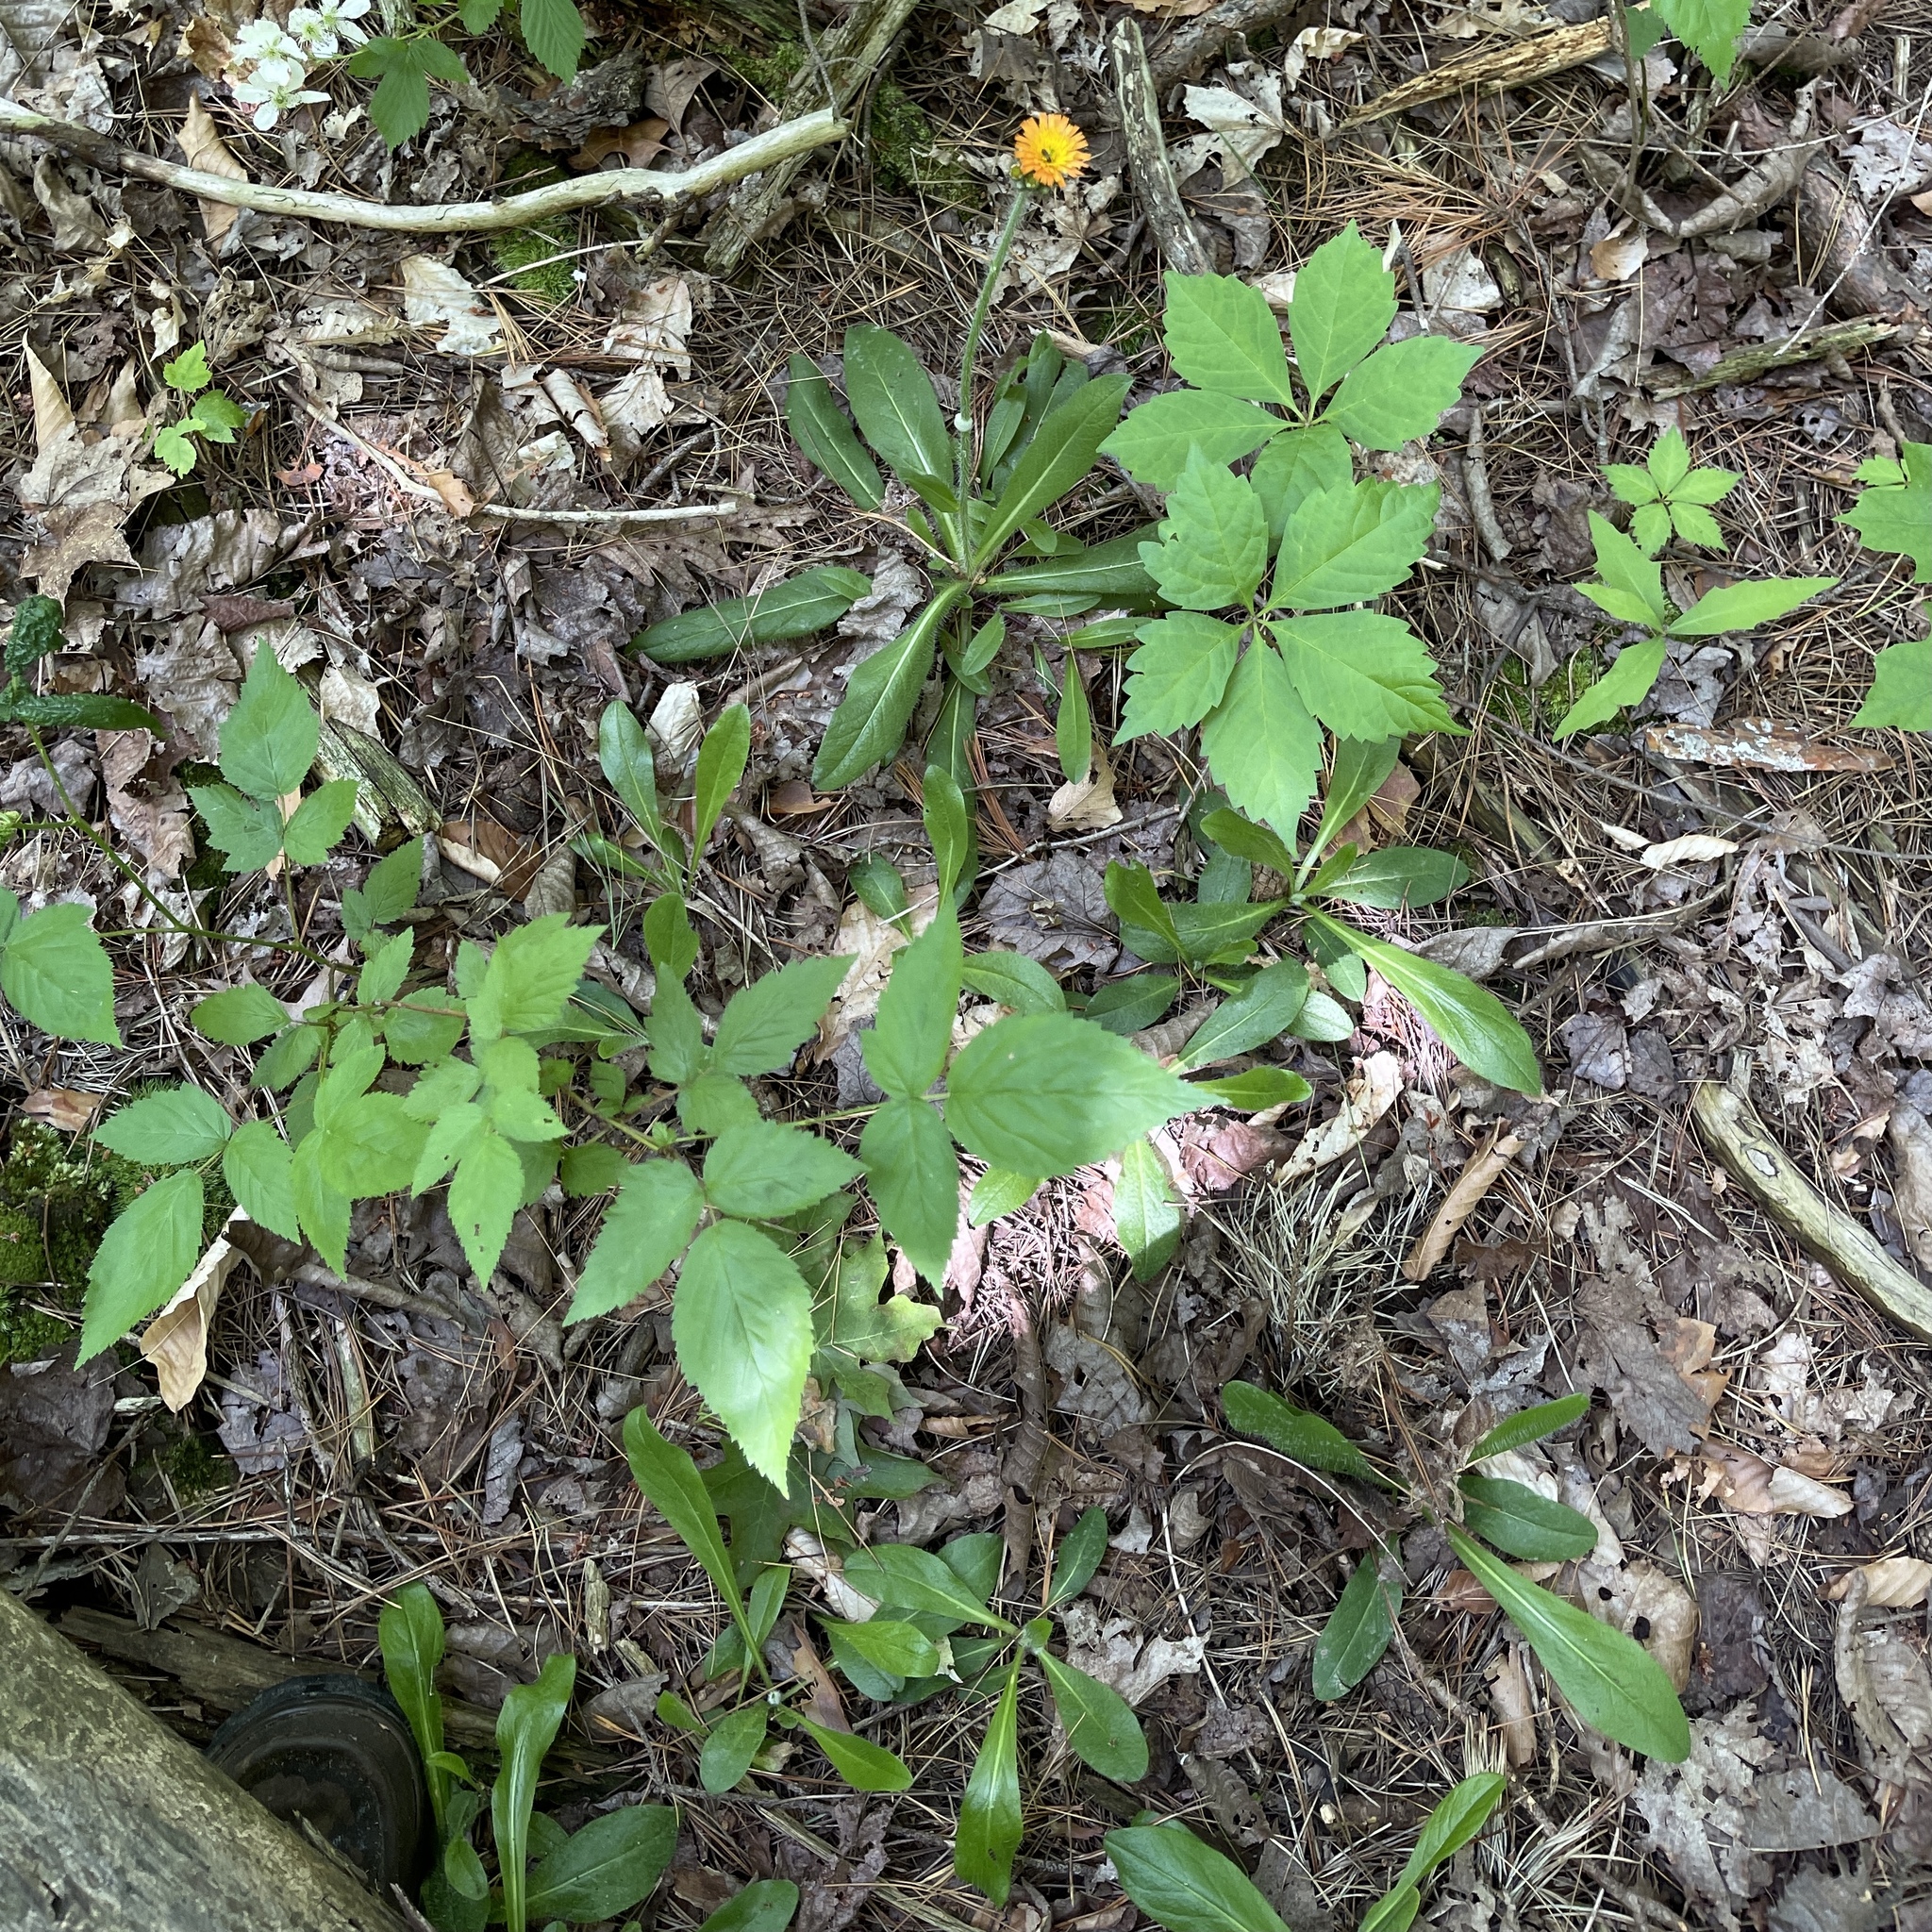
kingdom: Plantae
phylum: Tracheophyta
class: Magnoliopsida
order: Asterales
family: Asteraceae
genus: Pilosella
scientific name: Pilosella aurantiaca
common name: Fox-and-cubs
